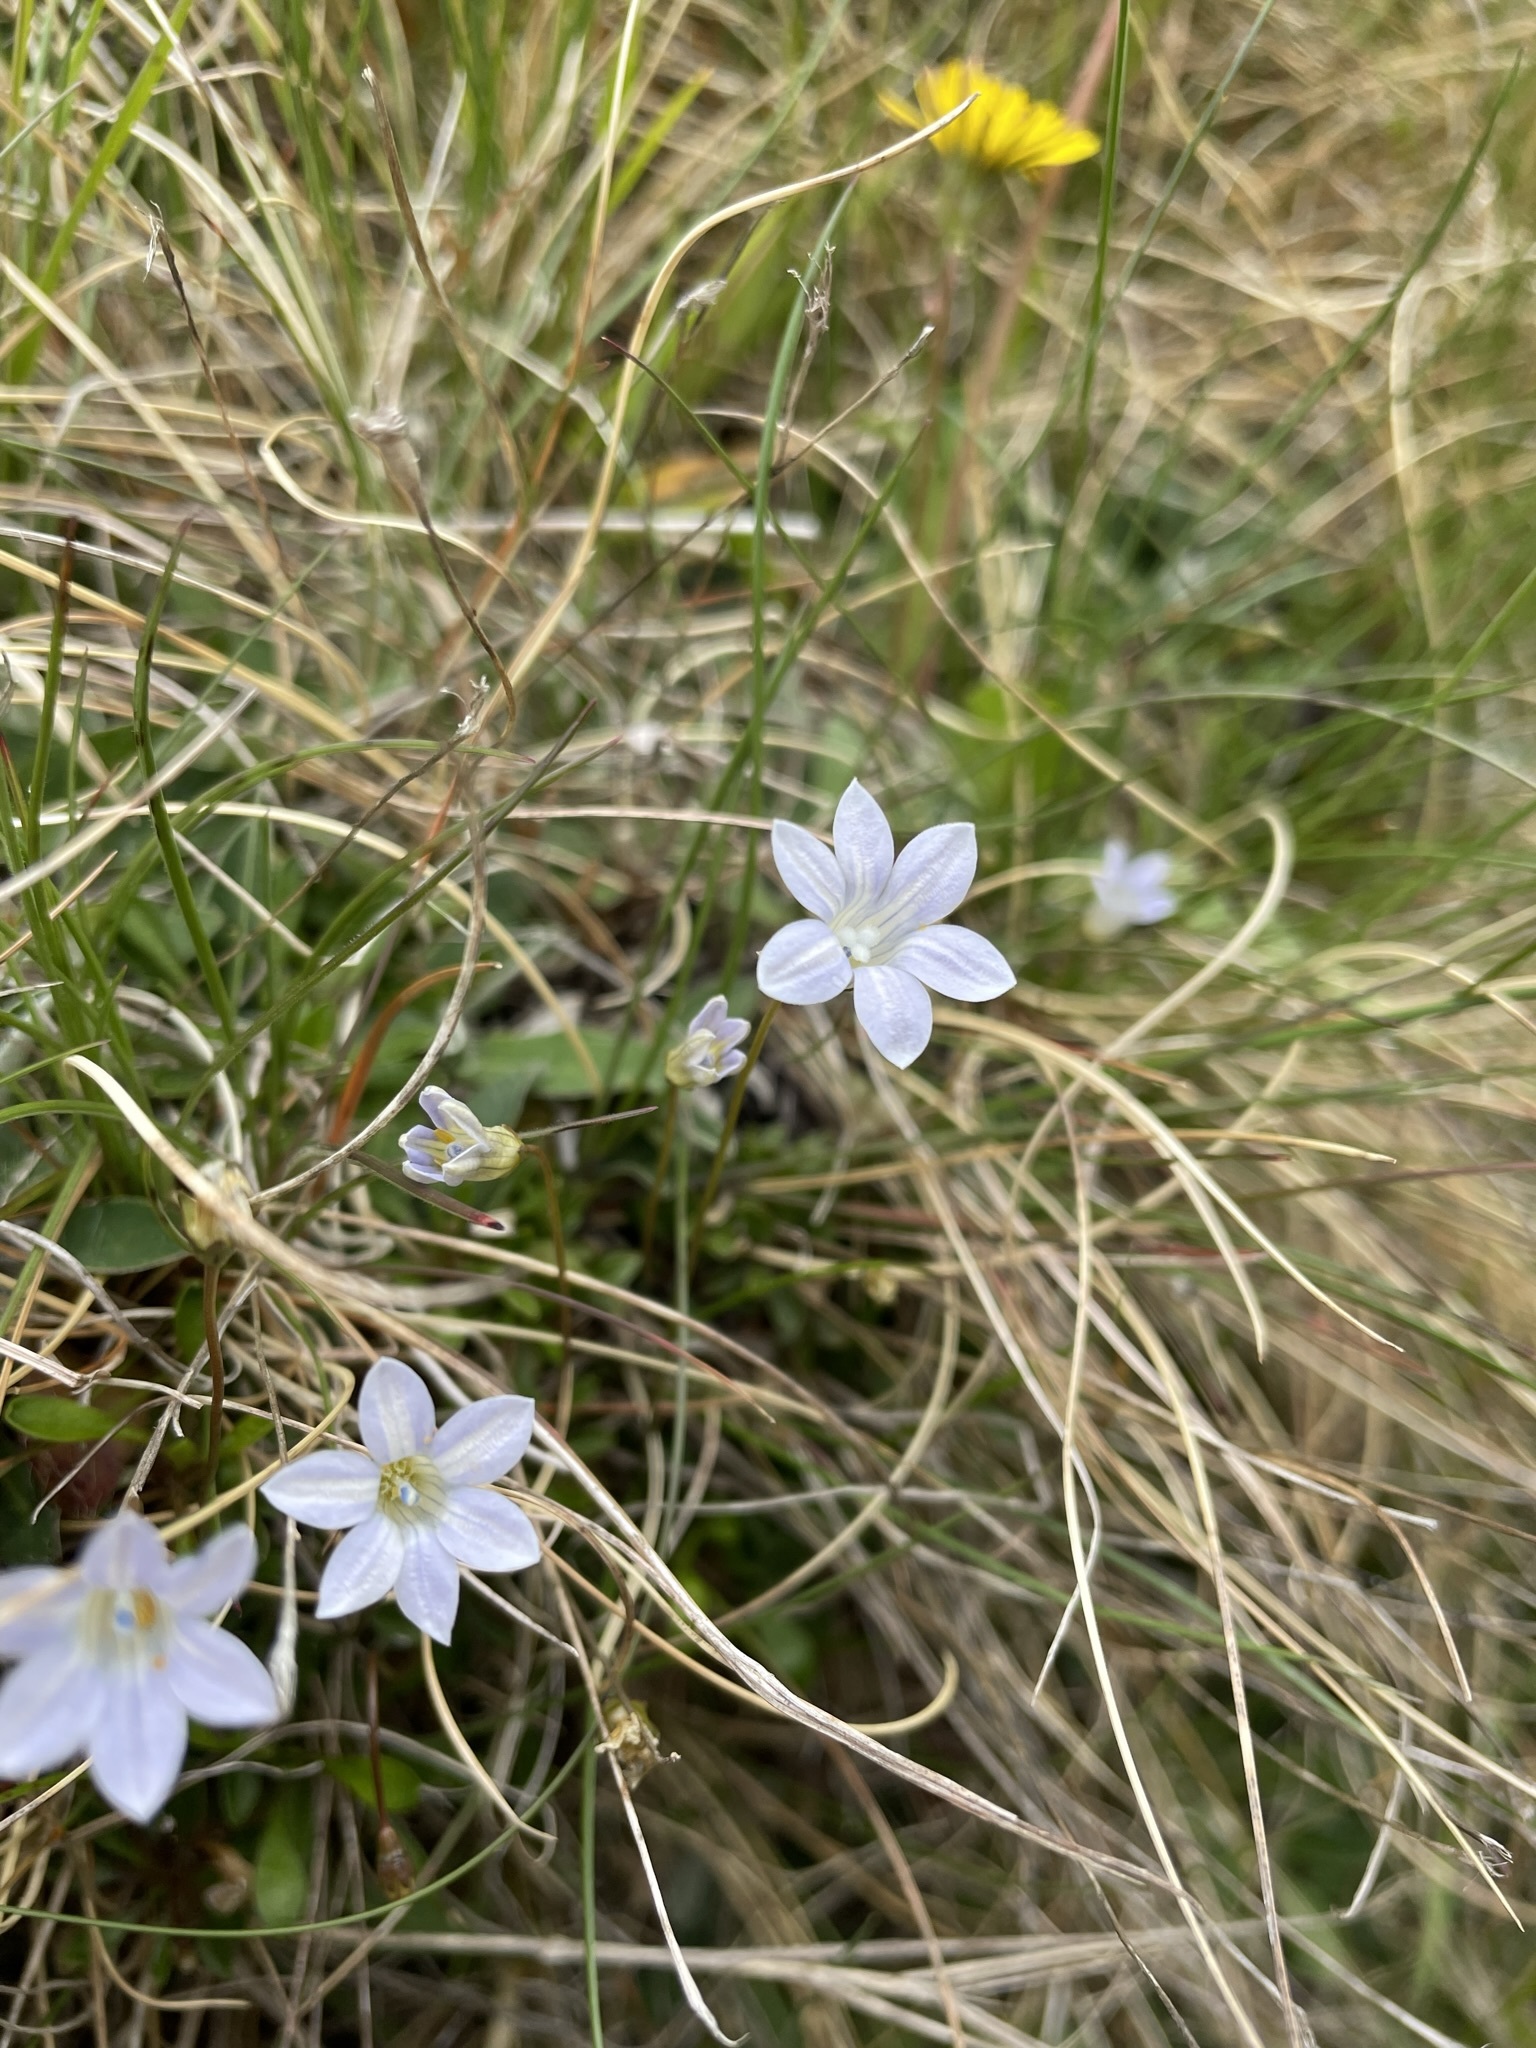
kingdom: Plantae
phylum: Tracheophyta
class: Magnoliopsida
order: Asterales
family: Campanulaceae
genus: Wahlenbergia
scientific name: Wahlenbergia albomarginata
